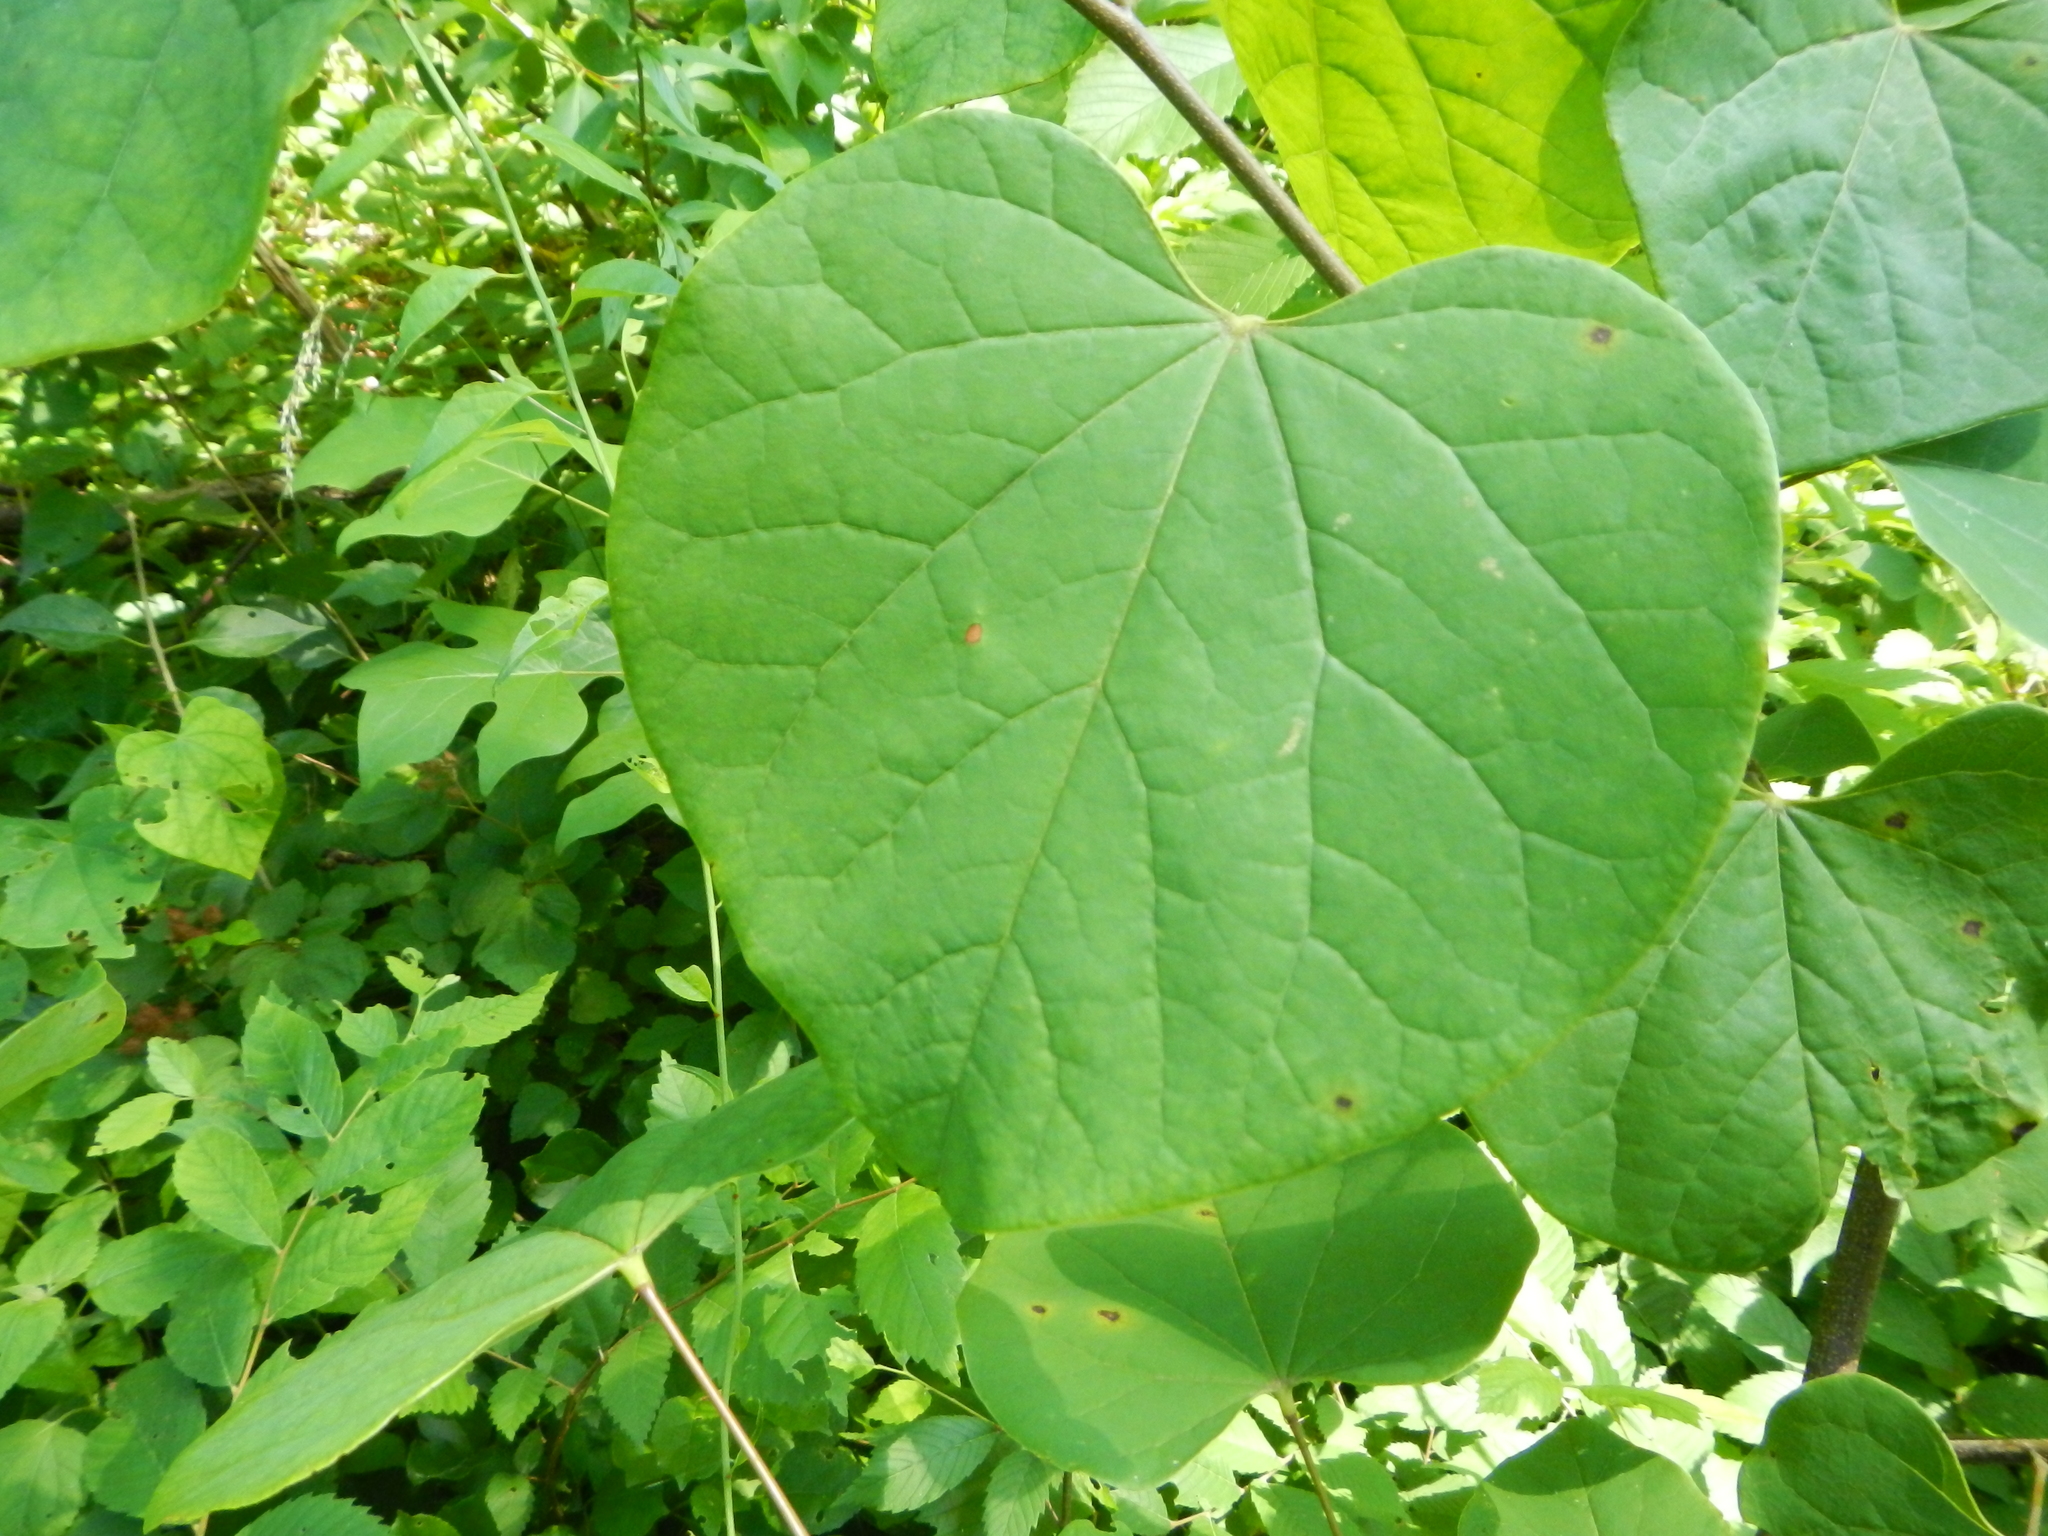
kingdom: Plantae
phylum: Tracheophyta
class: Magnoliopsida
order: Fabales
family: Fabaceae
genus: Cercis
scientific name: Cercis canadensis
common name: Eastern redbud
